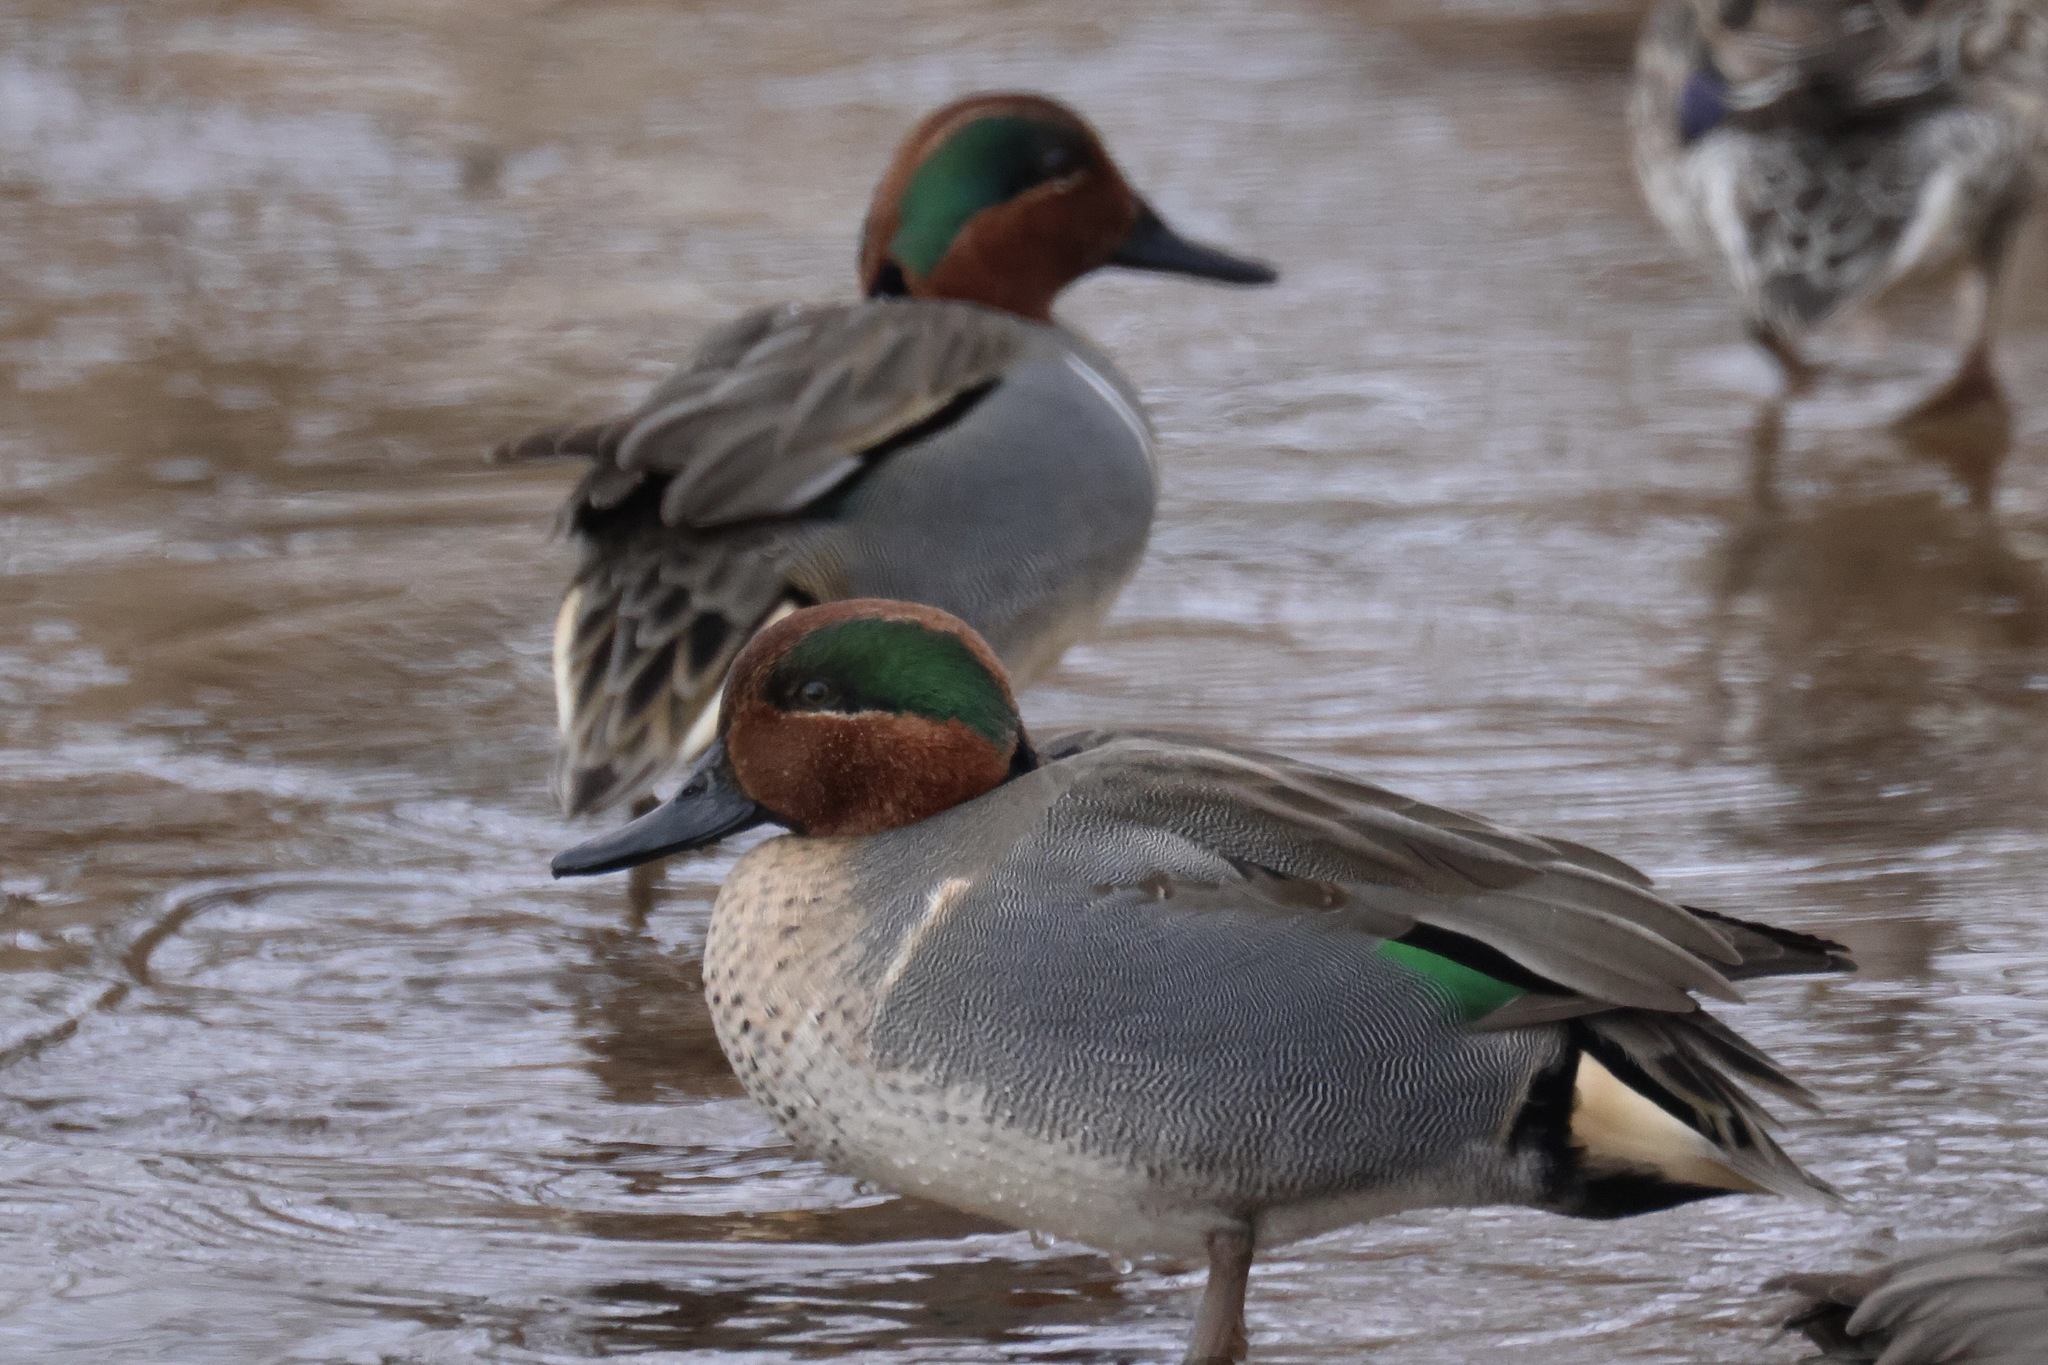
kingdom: Animalia
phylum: Chordata
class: Aves
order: Anseriformes
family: Anatidae
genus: Anas
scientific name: Anas crecca
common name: Eurasian teal
